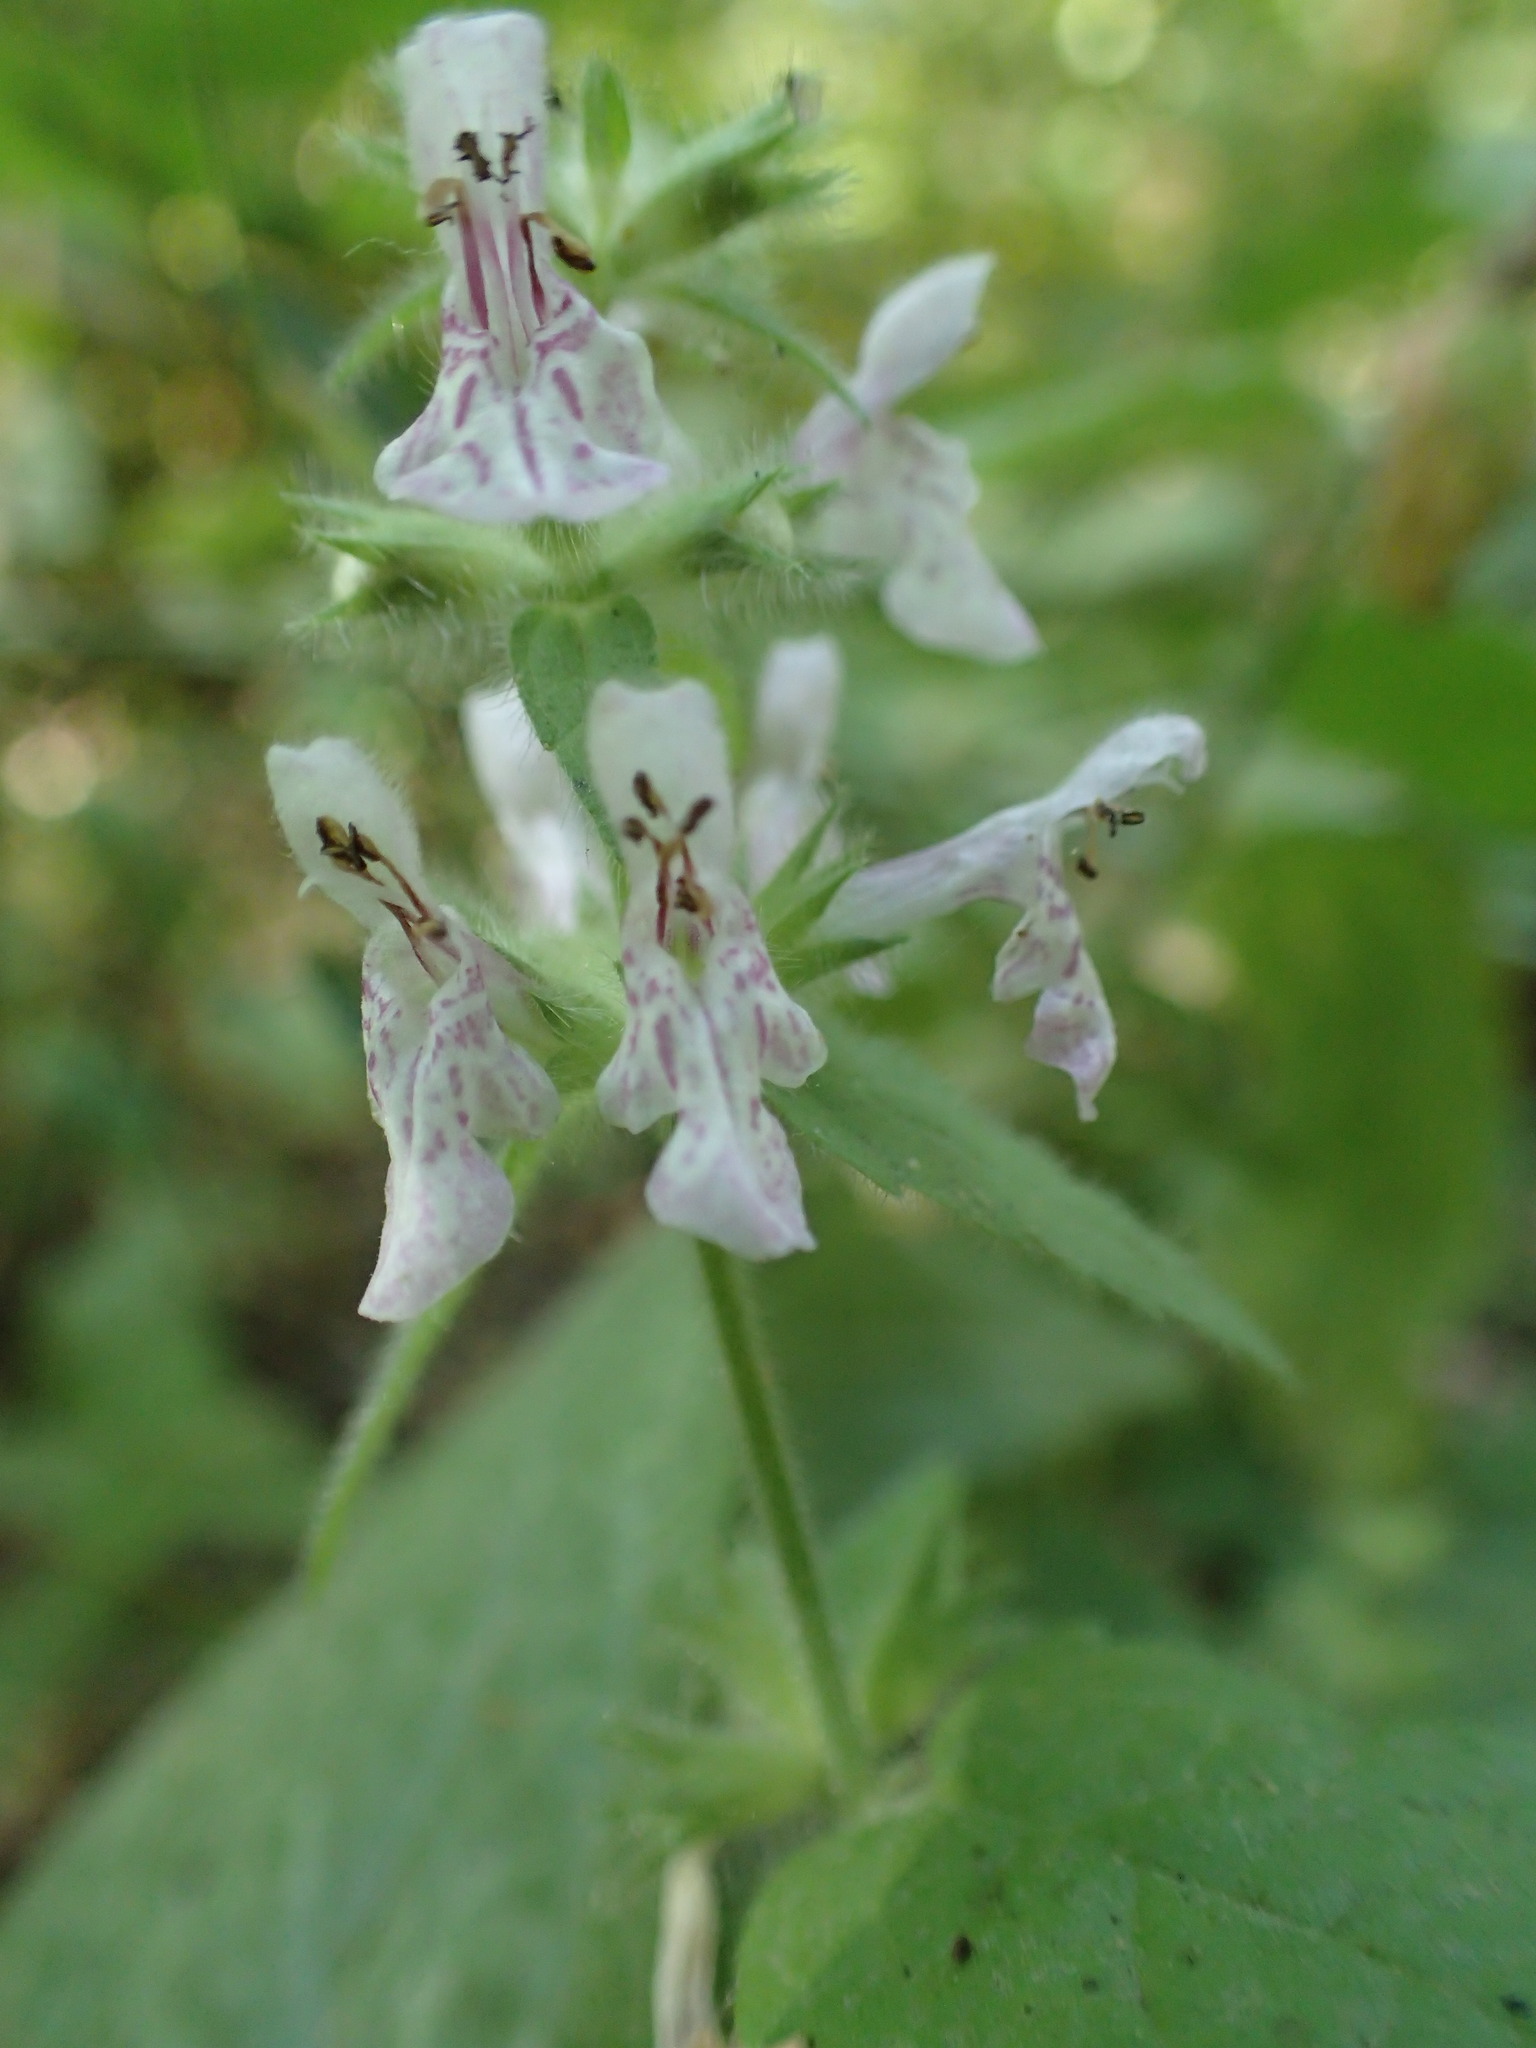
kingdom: Plantae
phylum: Tracheophyta
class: Magnoliopsida
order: Lamiales
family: Lamiaceae
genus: Stachys
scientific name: Stachys rigida
